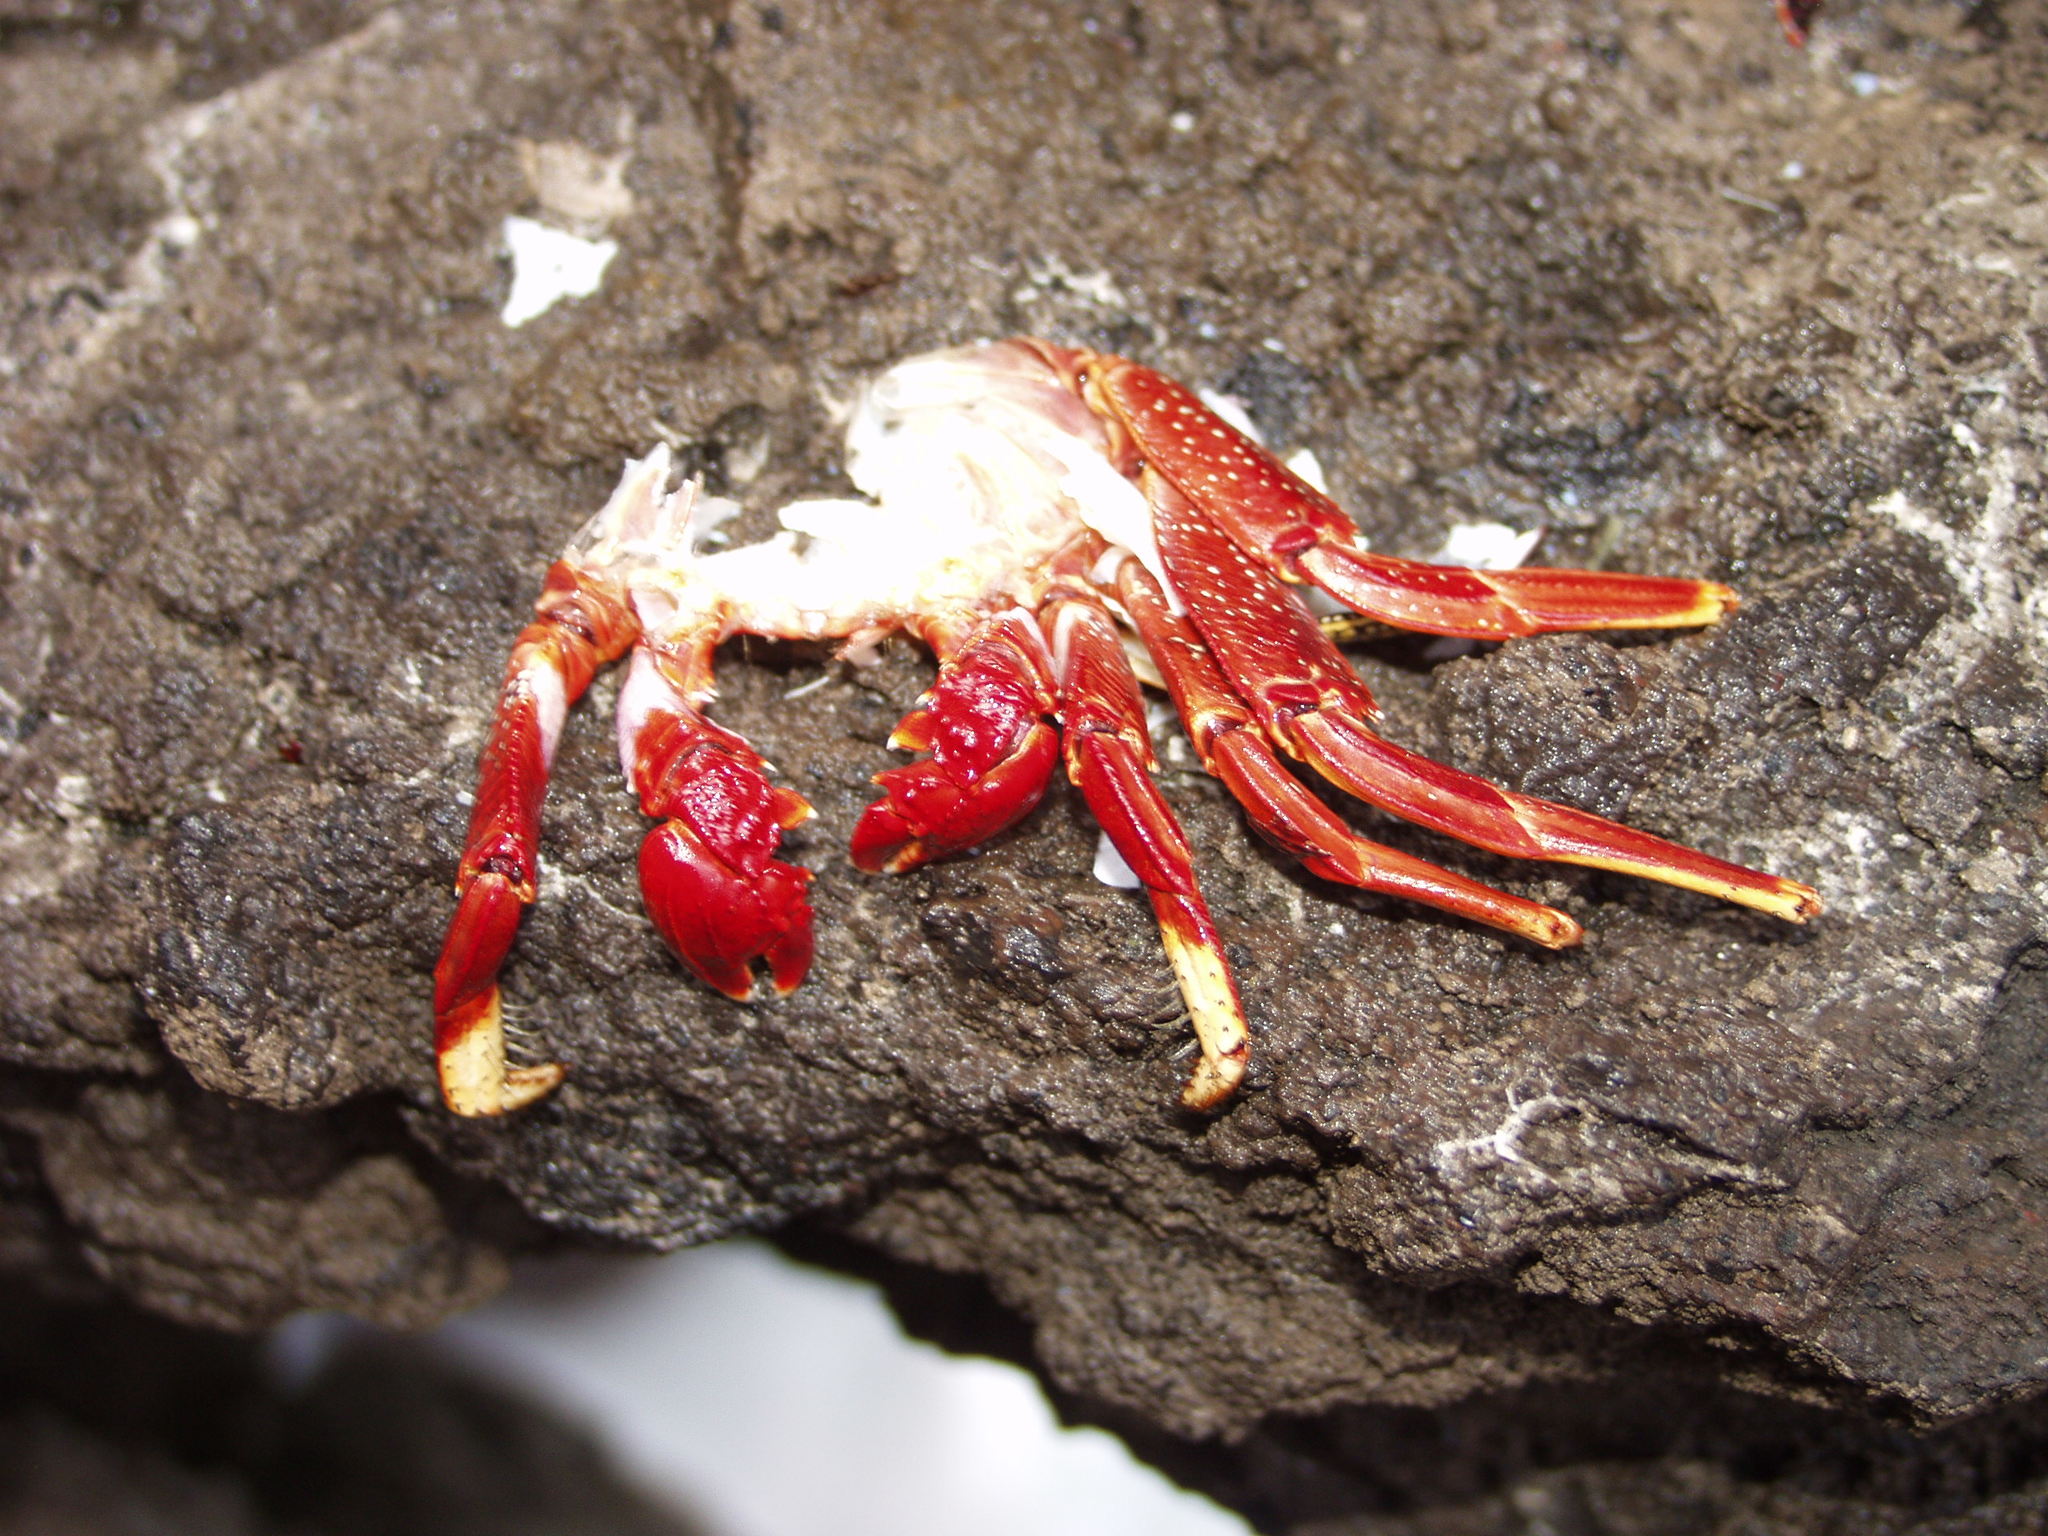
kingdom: Animalia
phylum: Arthropoda
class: Malacostraca
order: Decapoda
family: Grapsidae
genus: Grapsus
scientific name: Grapsus adscensionis
